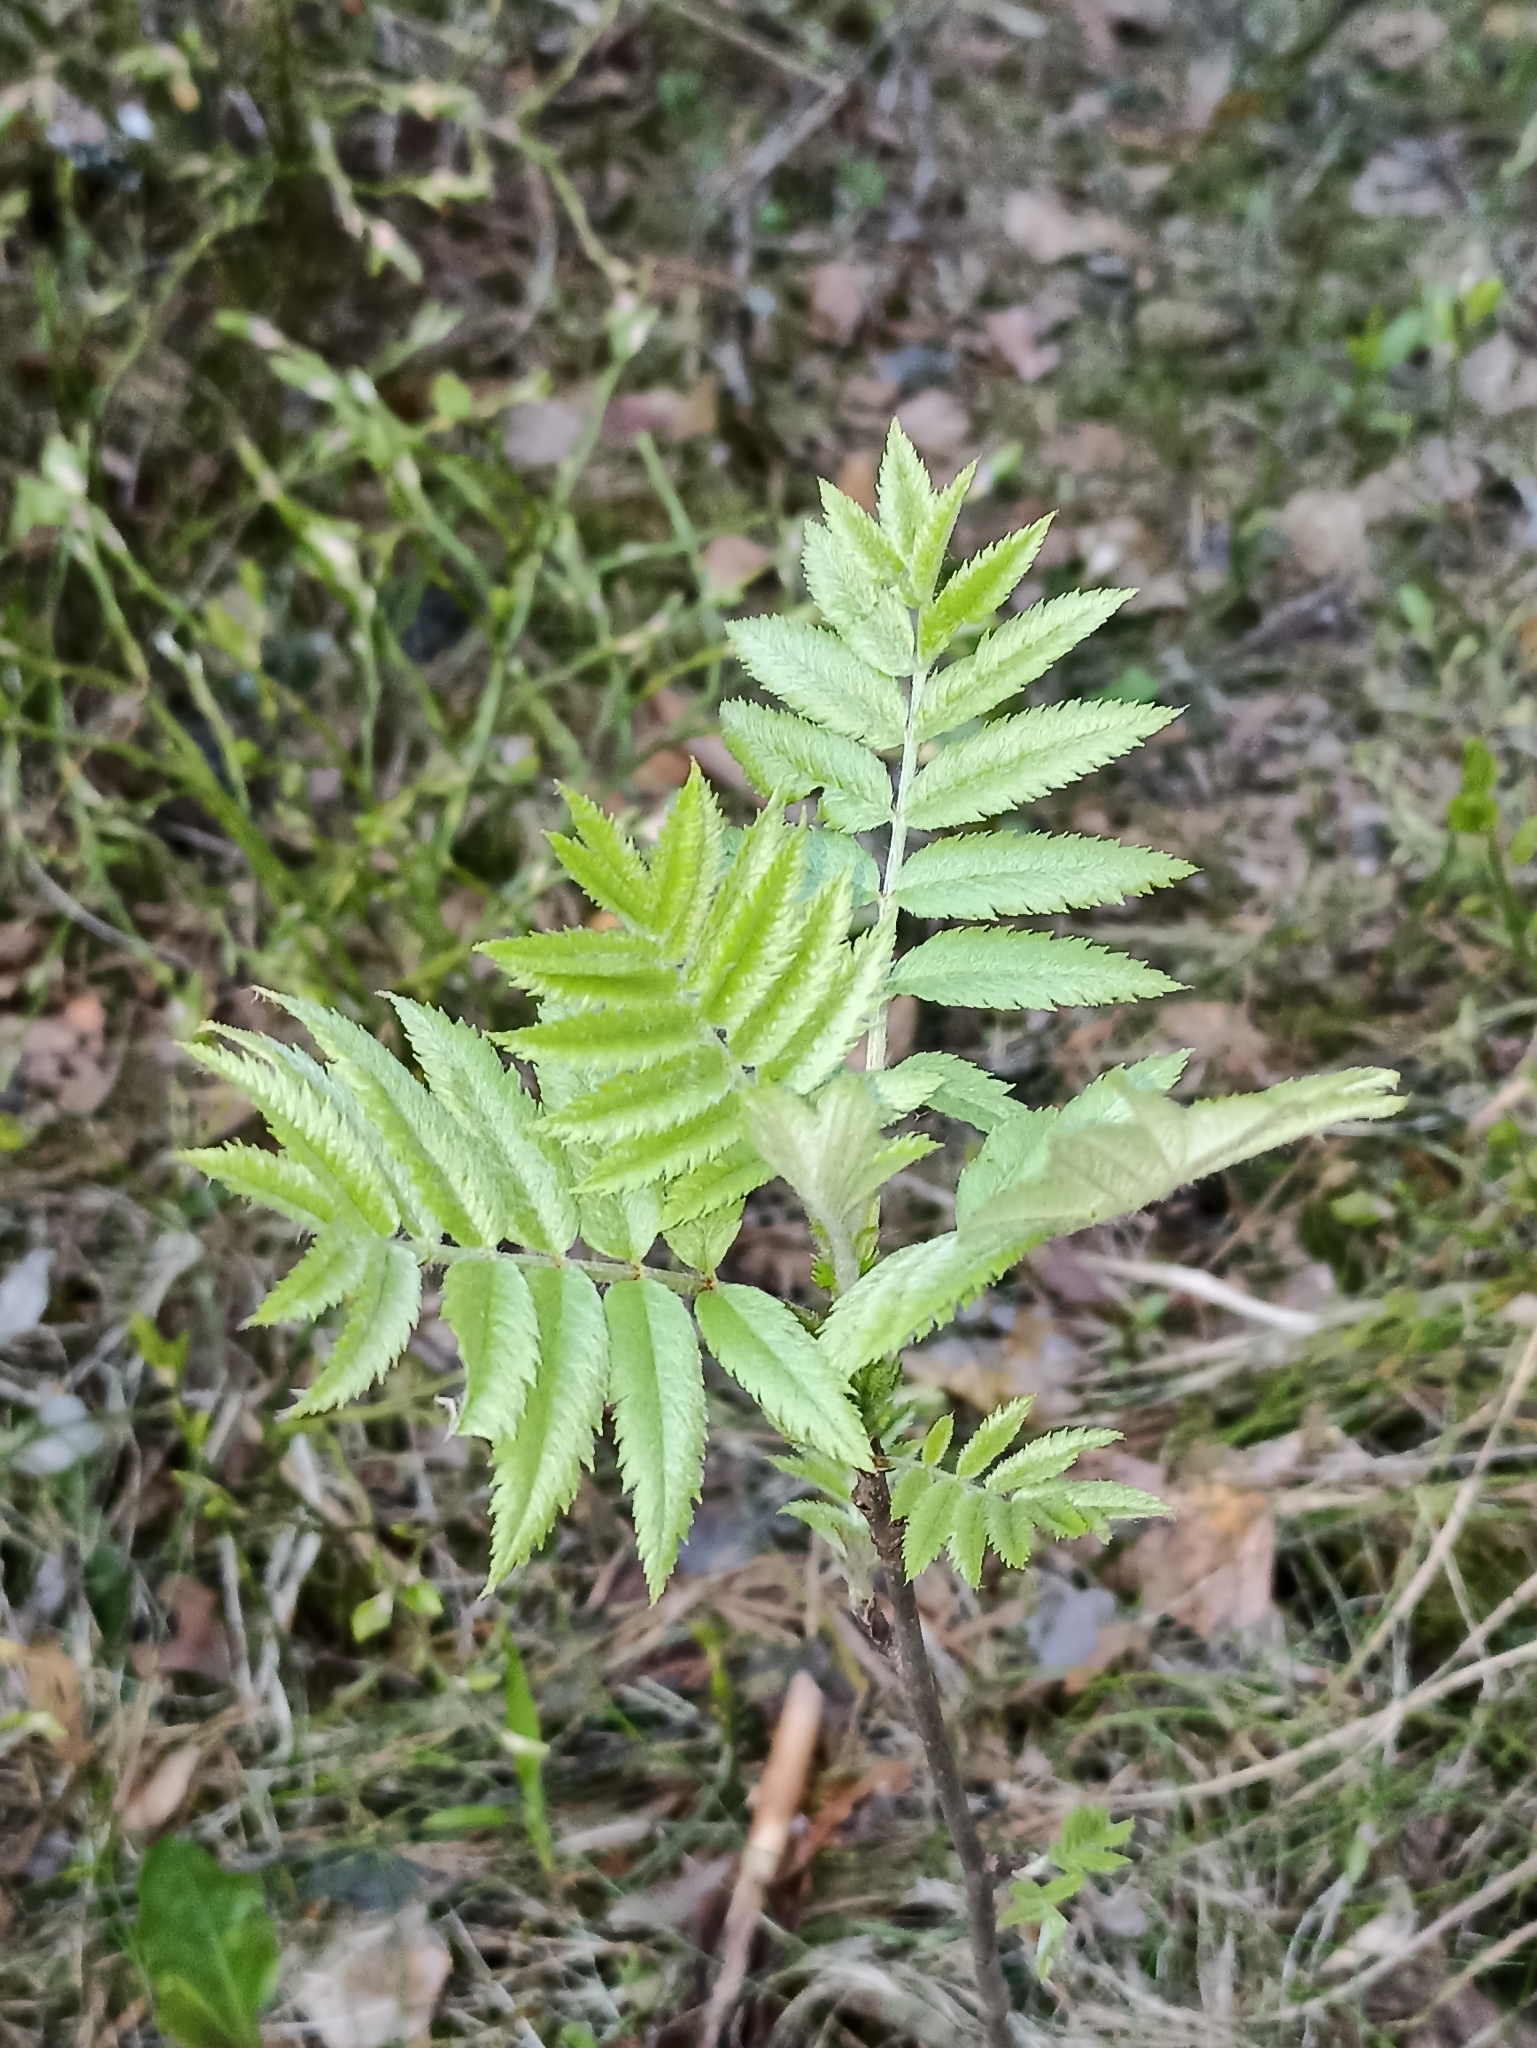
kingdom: Plantae
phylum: Tracheophyta
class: Magnoliopsida
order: Rosales
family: Rosaceae
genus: Sorbus
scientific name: Sorbus aucuparia
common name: Rowan
